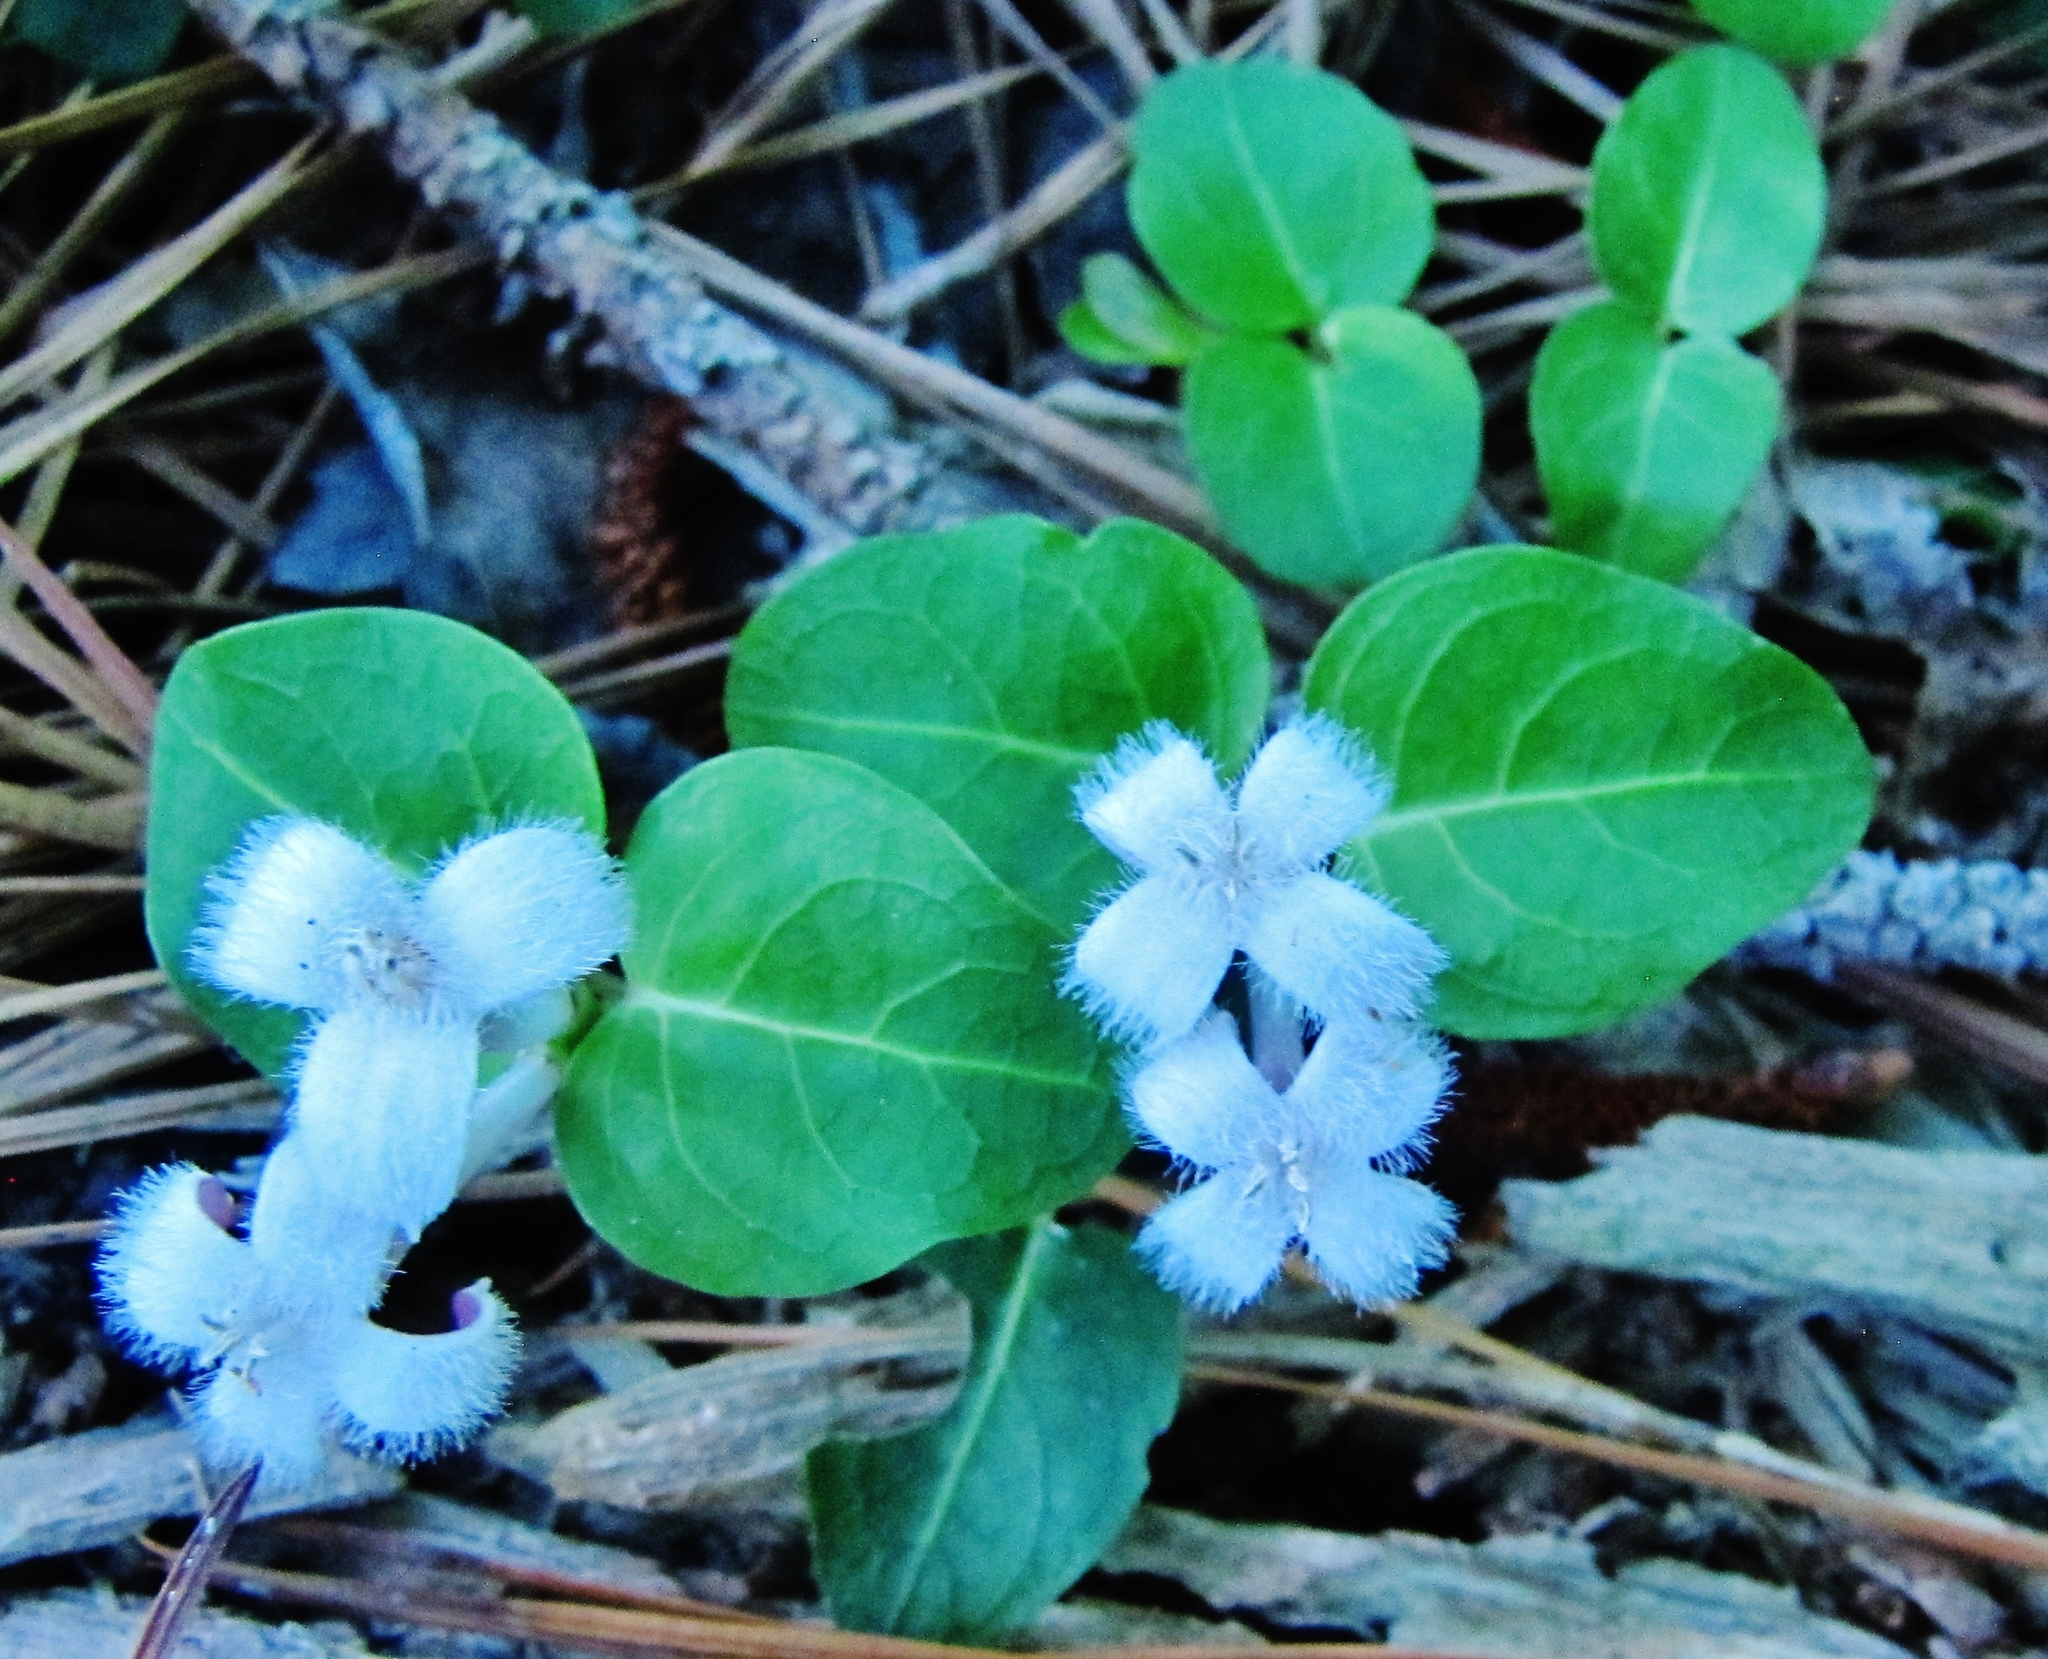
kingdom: Plantae
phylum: Tracheophyta
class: Magnoliopsida
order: Gentianales
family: Rubiaceae
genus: Mitchella
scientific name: Mitchella repens
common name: Partridge-berry
